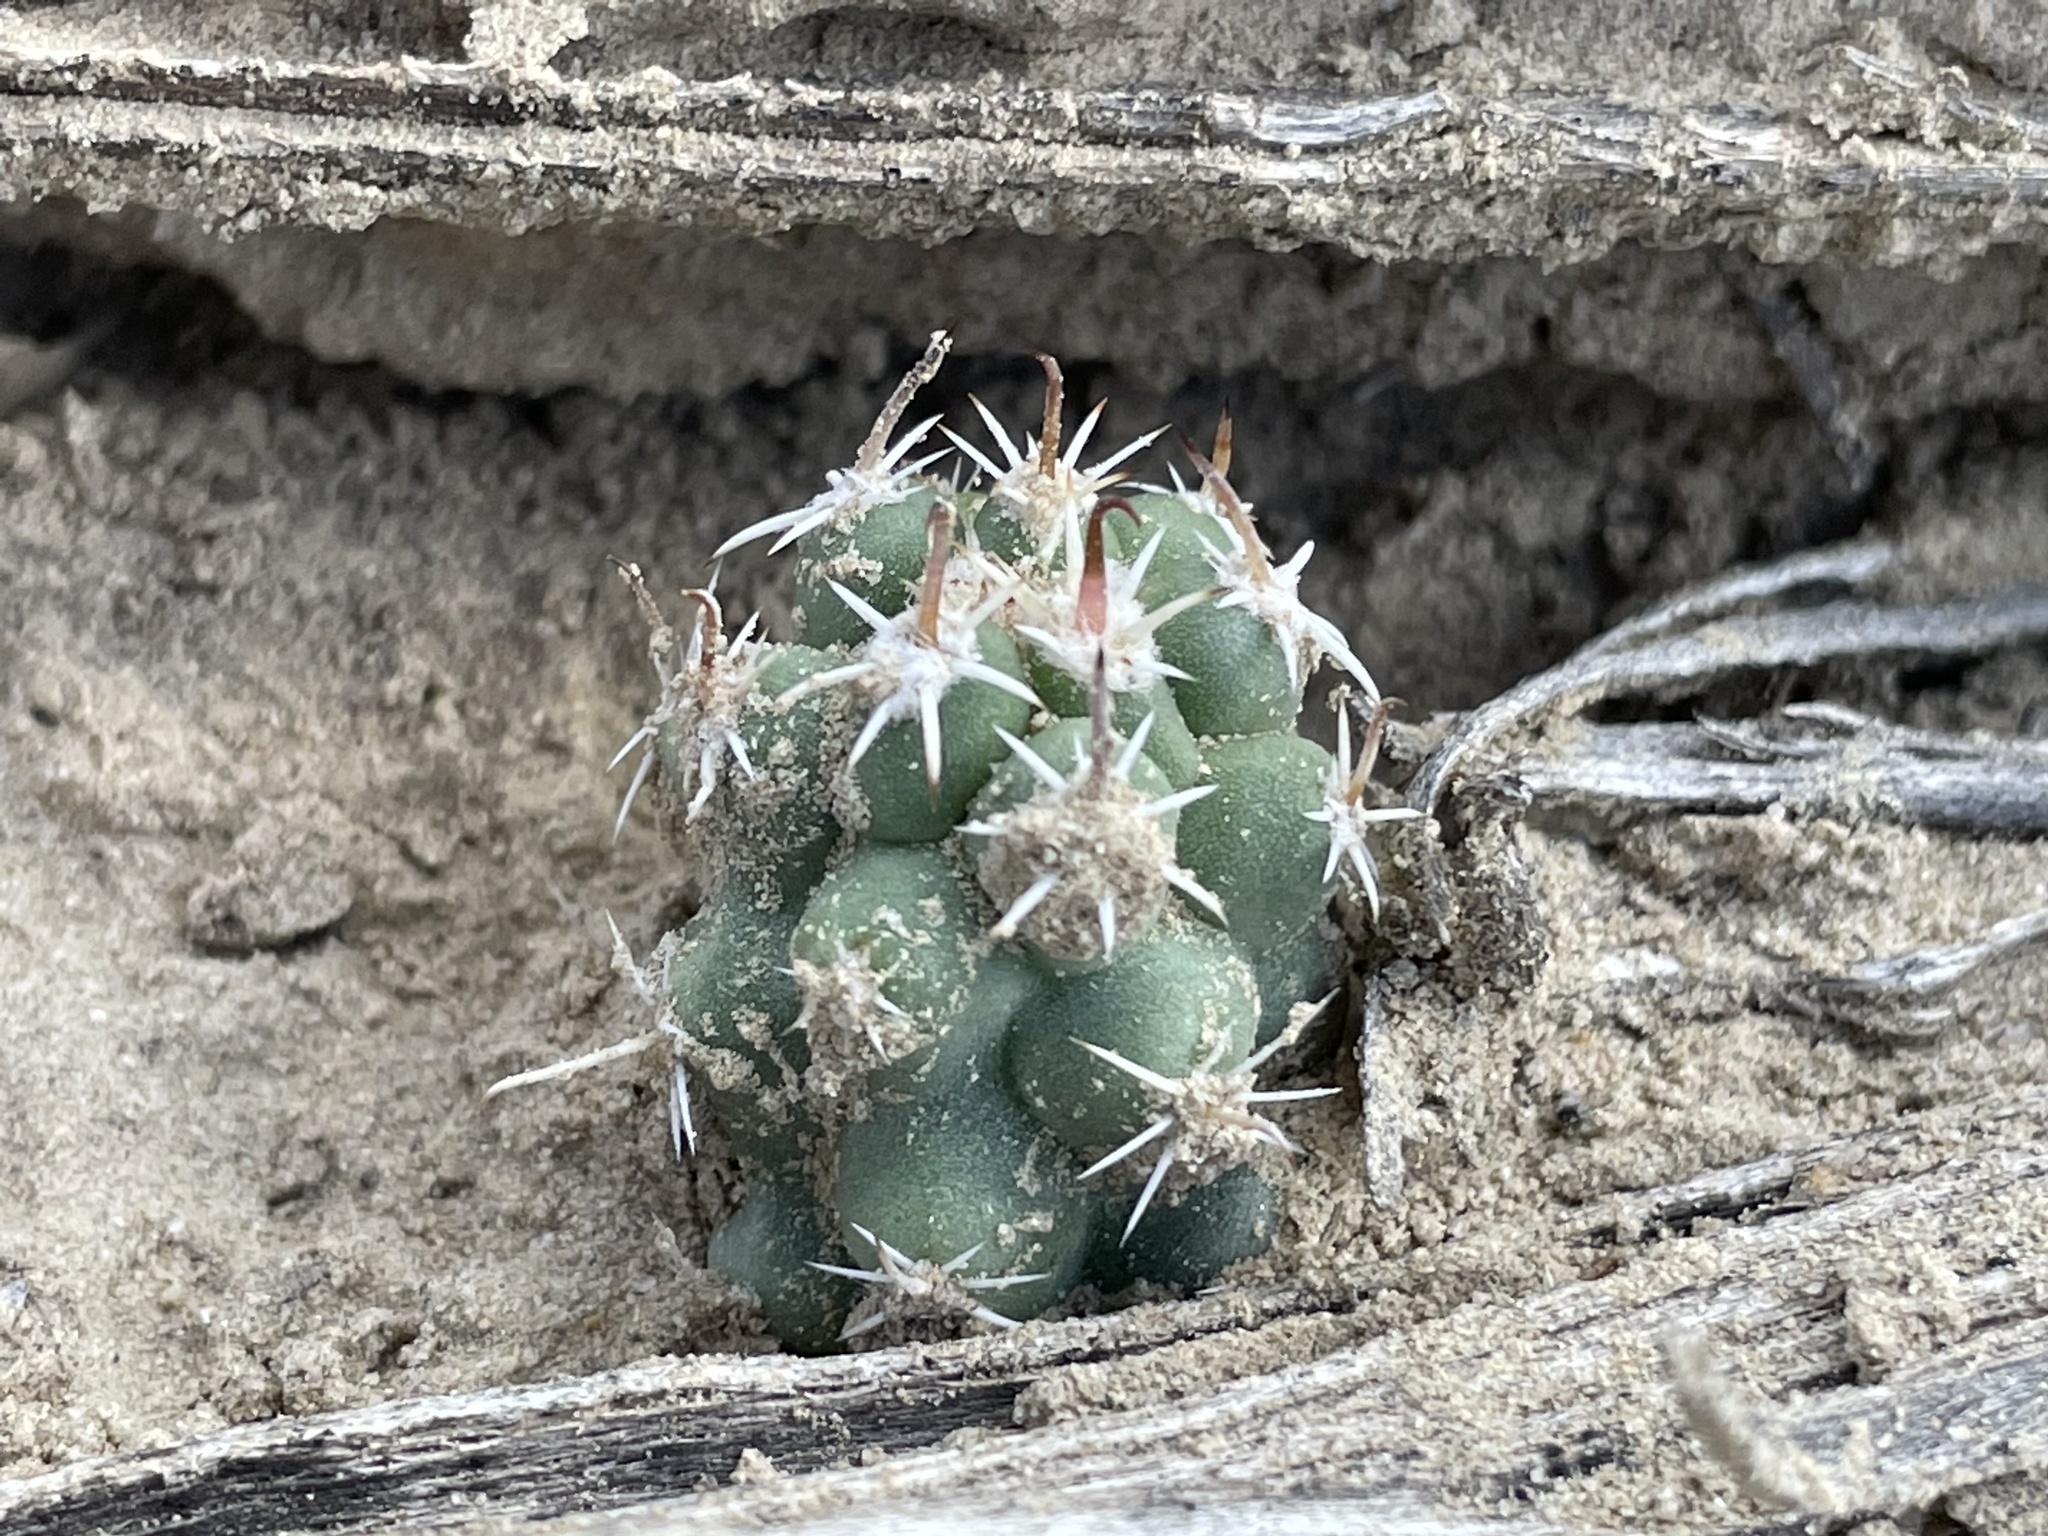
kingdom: Plantae
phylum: Tracheophyta
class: Magnoliopsida
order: Caryophyllales
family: Cactaceae
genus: Sclerocactus
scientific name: Sclerocactus cloverae
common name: Clover's eagle-claw cactus
